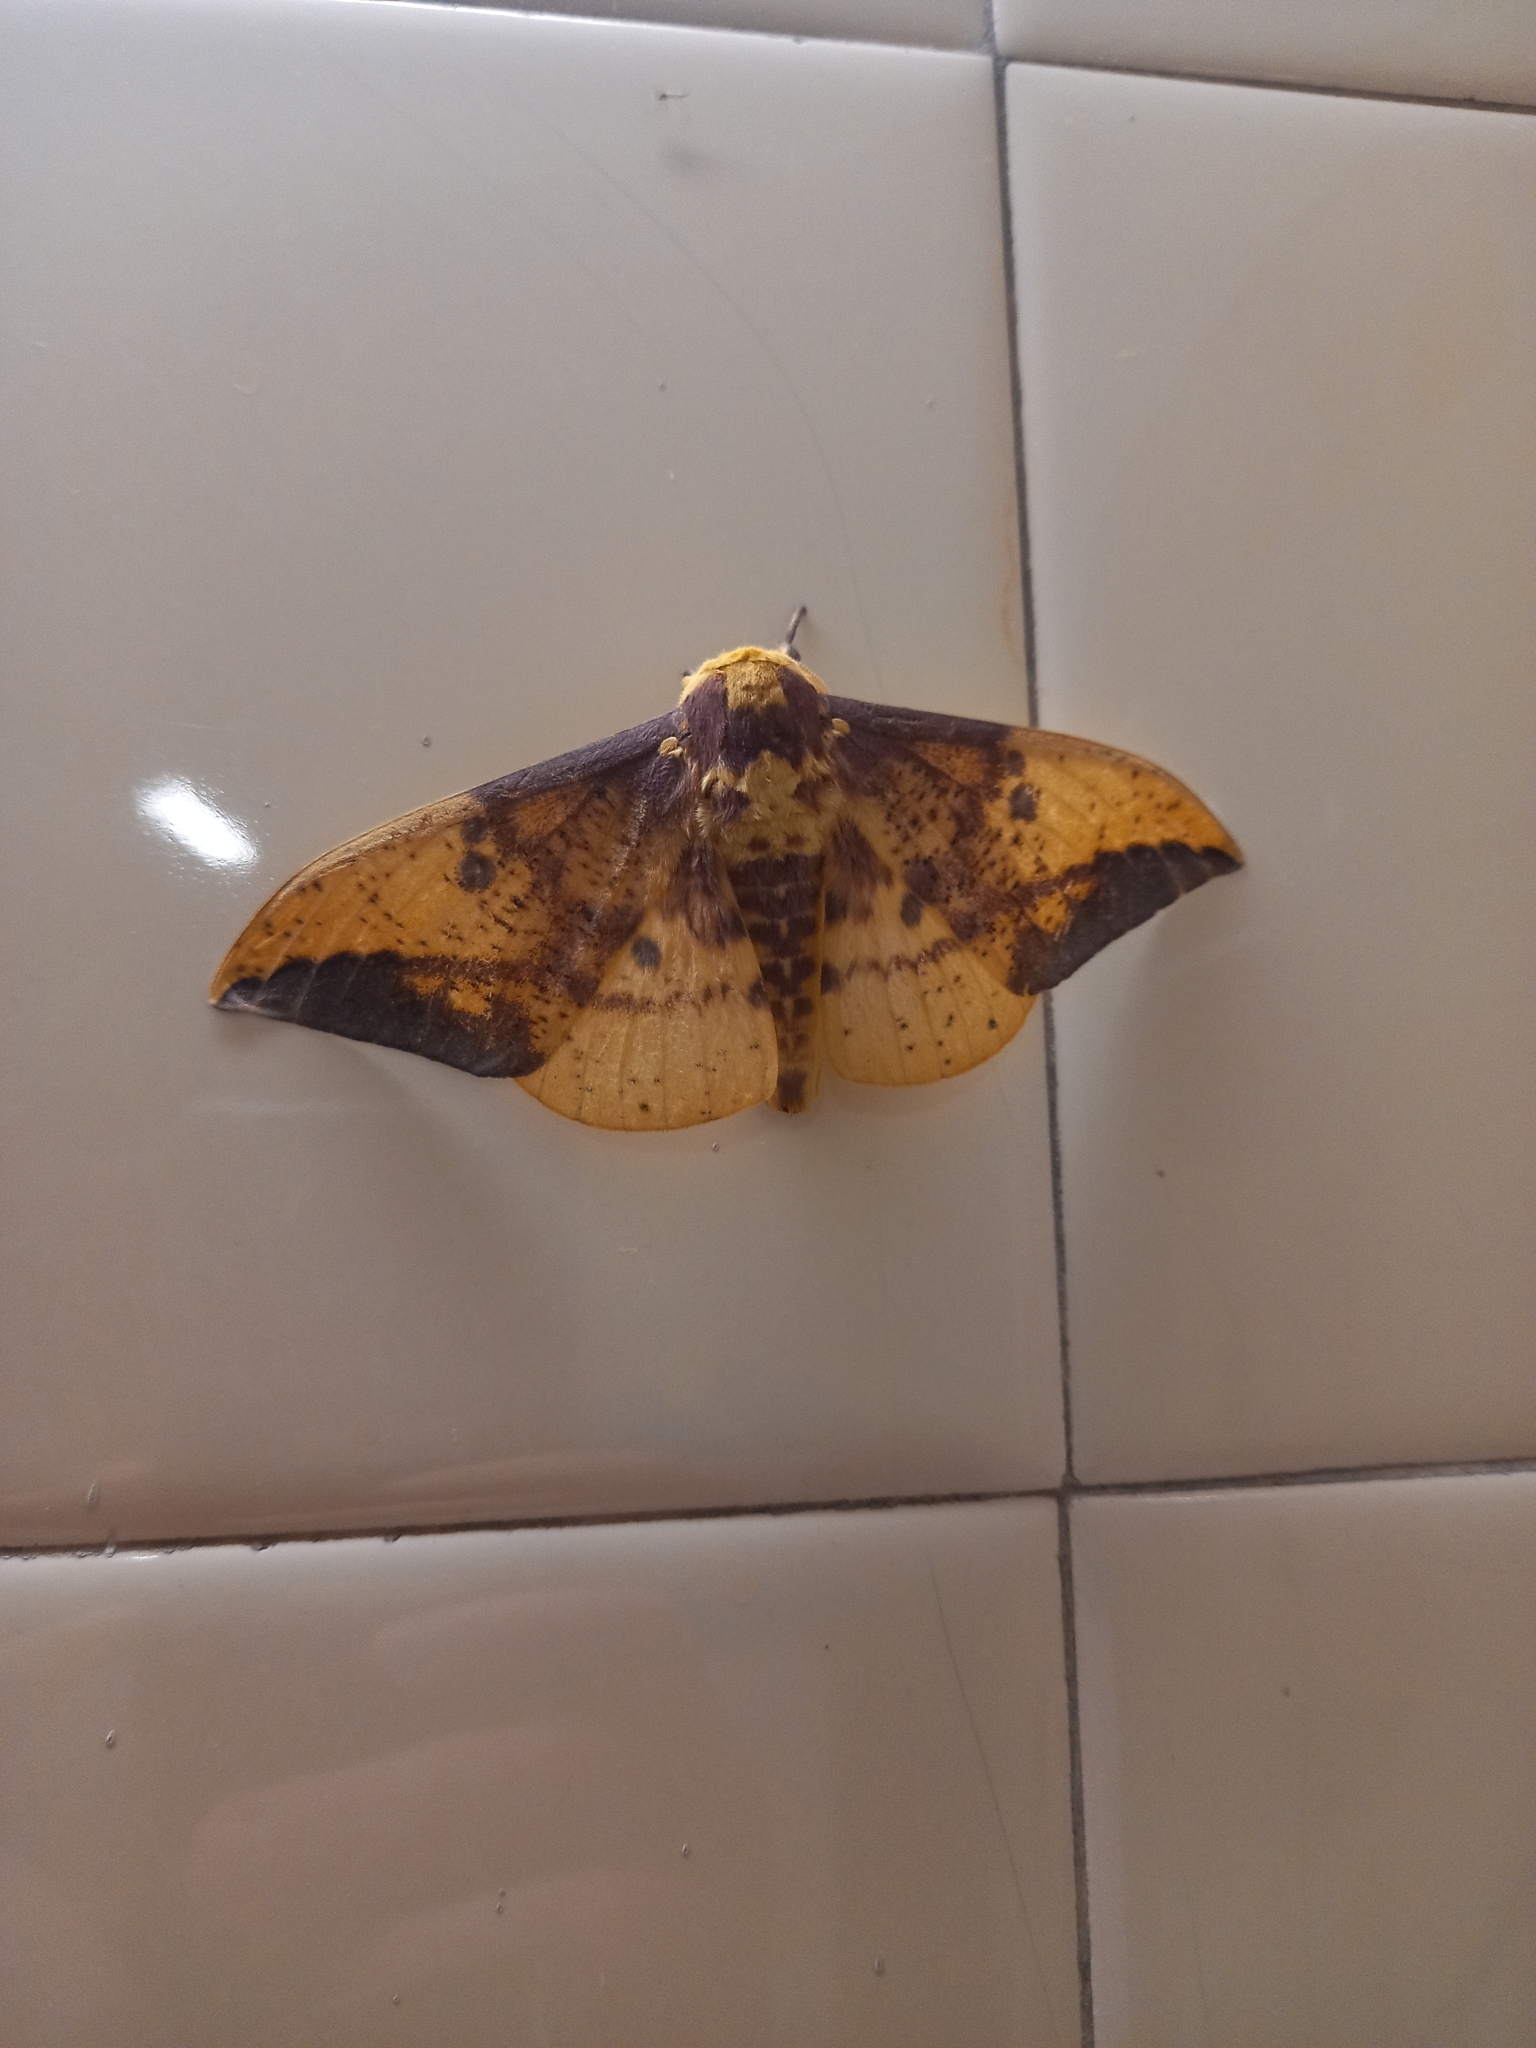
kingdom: Animalia
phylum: Arthropoda
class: Insecta
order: Lepidoptera
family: Saturniidae
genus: Eacles
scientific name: Eacles imperialis
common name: Imperial moth
